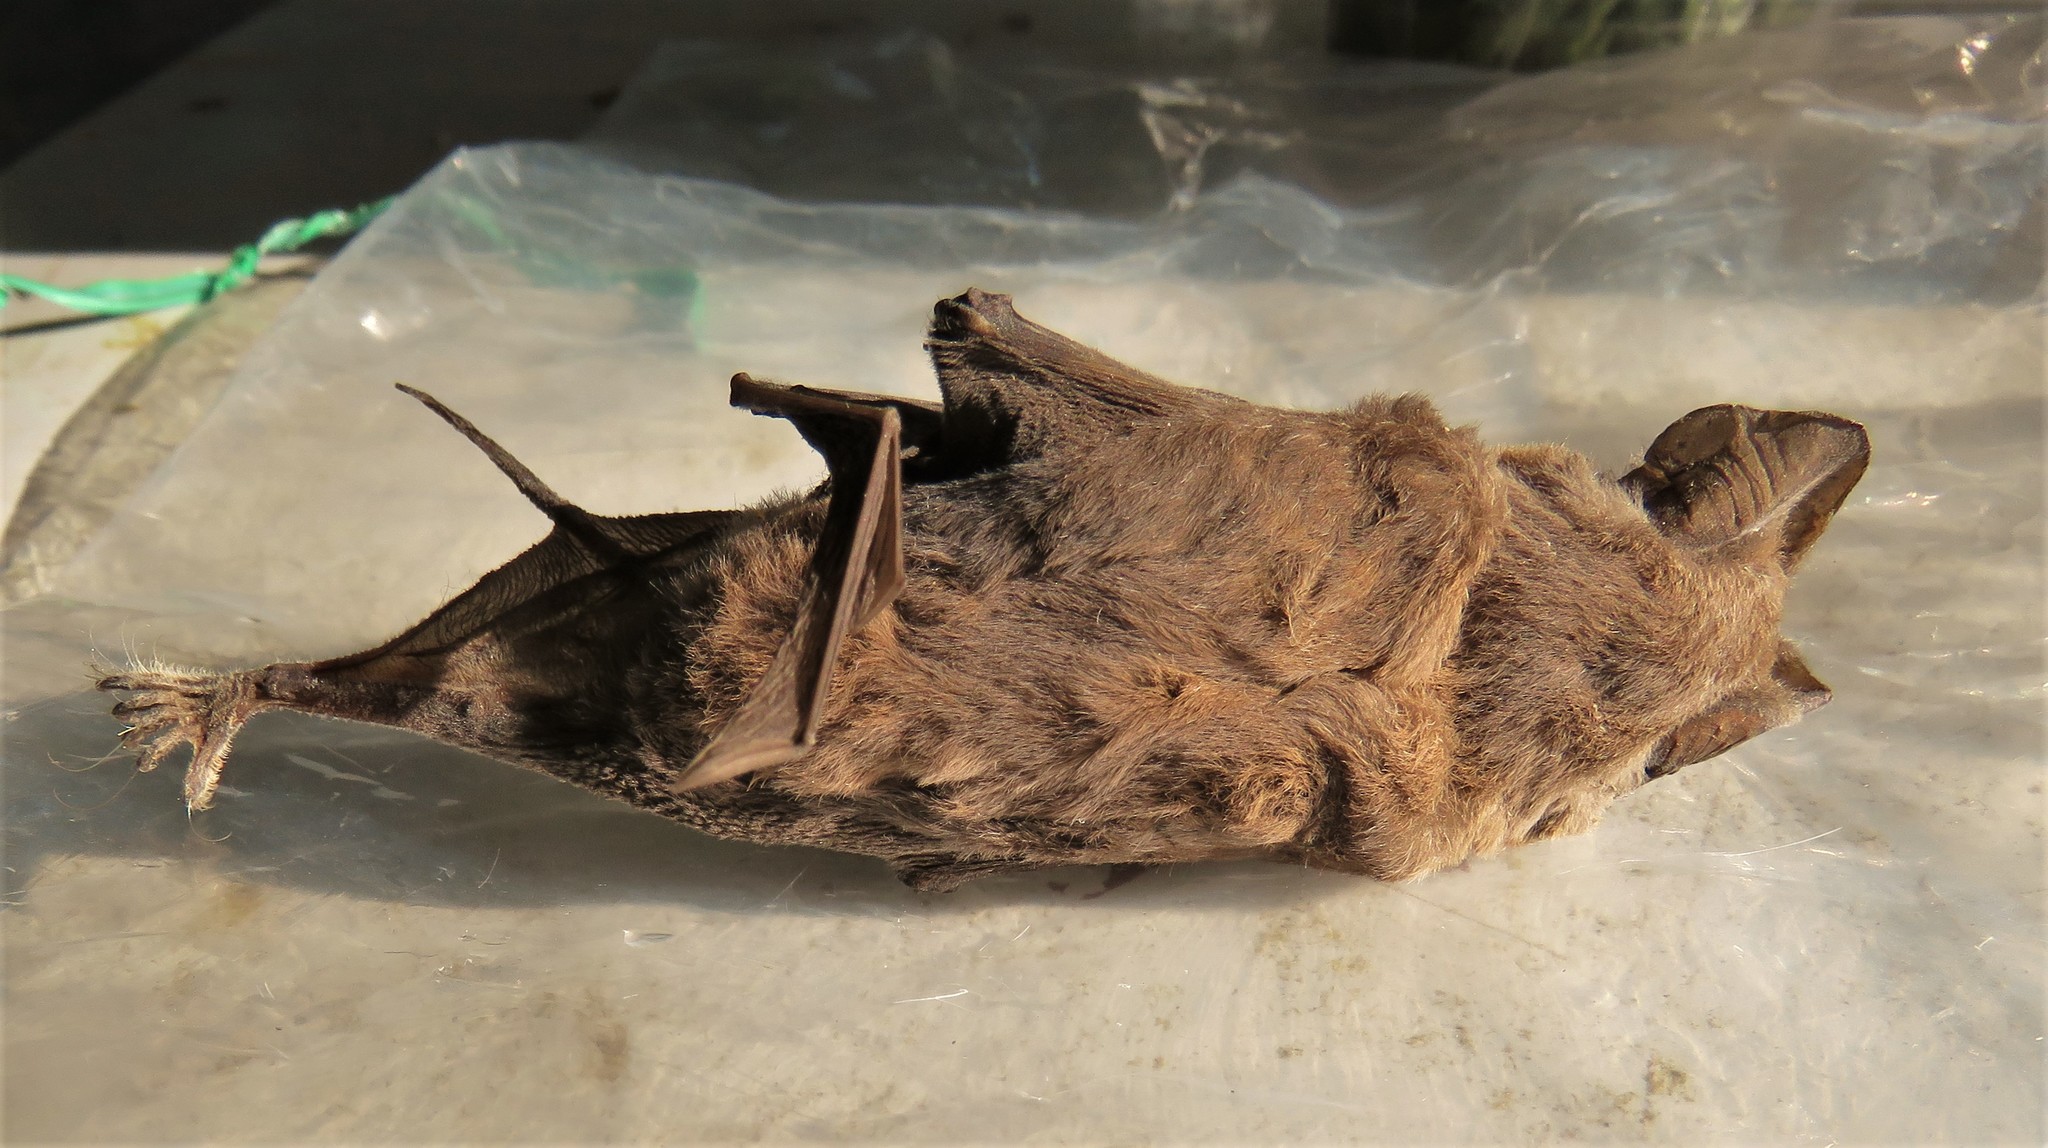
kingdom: Animalia
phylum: Chordata
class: Mammalia
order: Chiroptera
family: Molossidae
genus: Tadarida
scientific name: Tadarida brasiliensis
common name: Mexican free-tailed bat
